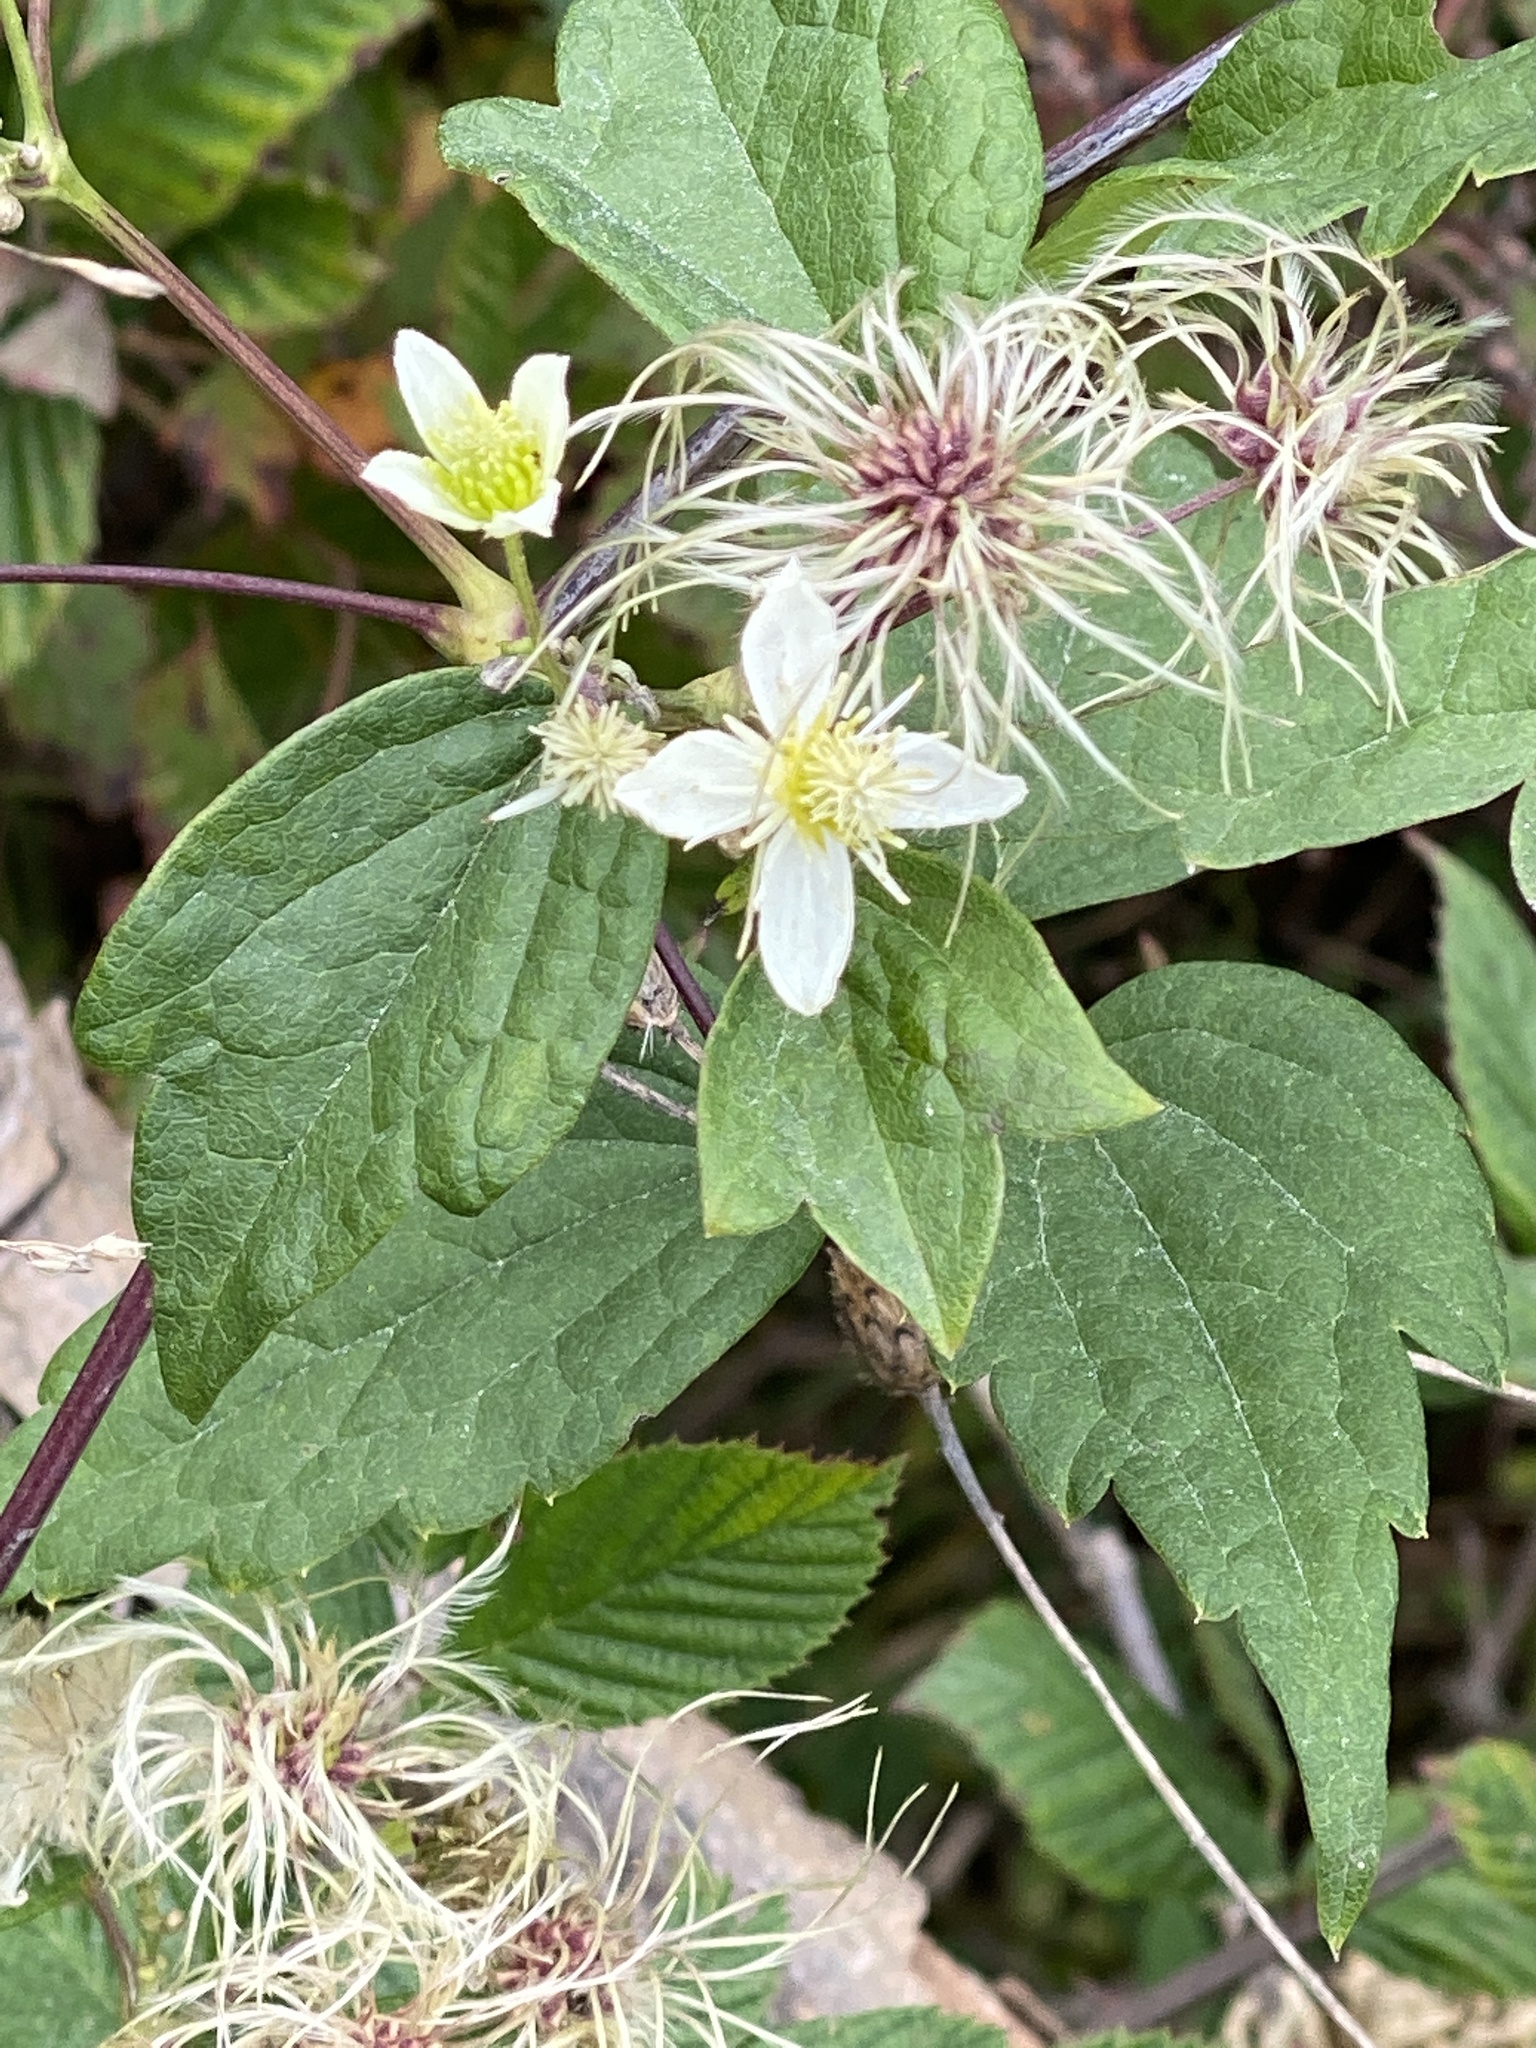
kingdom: Plantae
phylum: Tracheophyta
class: Magnoliopsida
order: Ranunculales
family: Ranunculaceae
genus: Clematis
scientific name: Clematis virginiana
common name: Virgin's-bower
